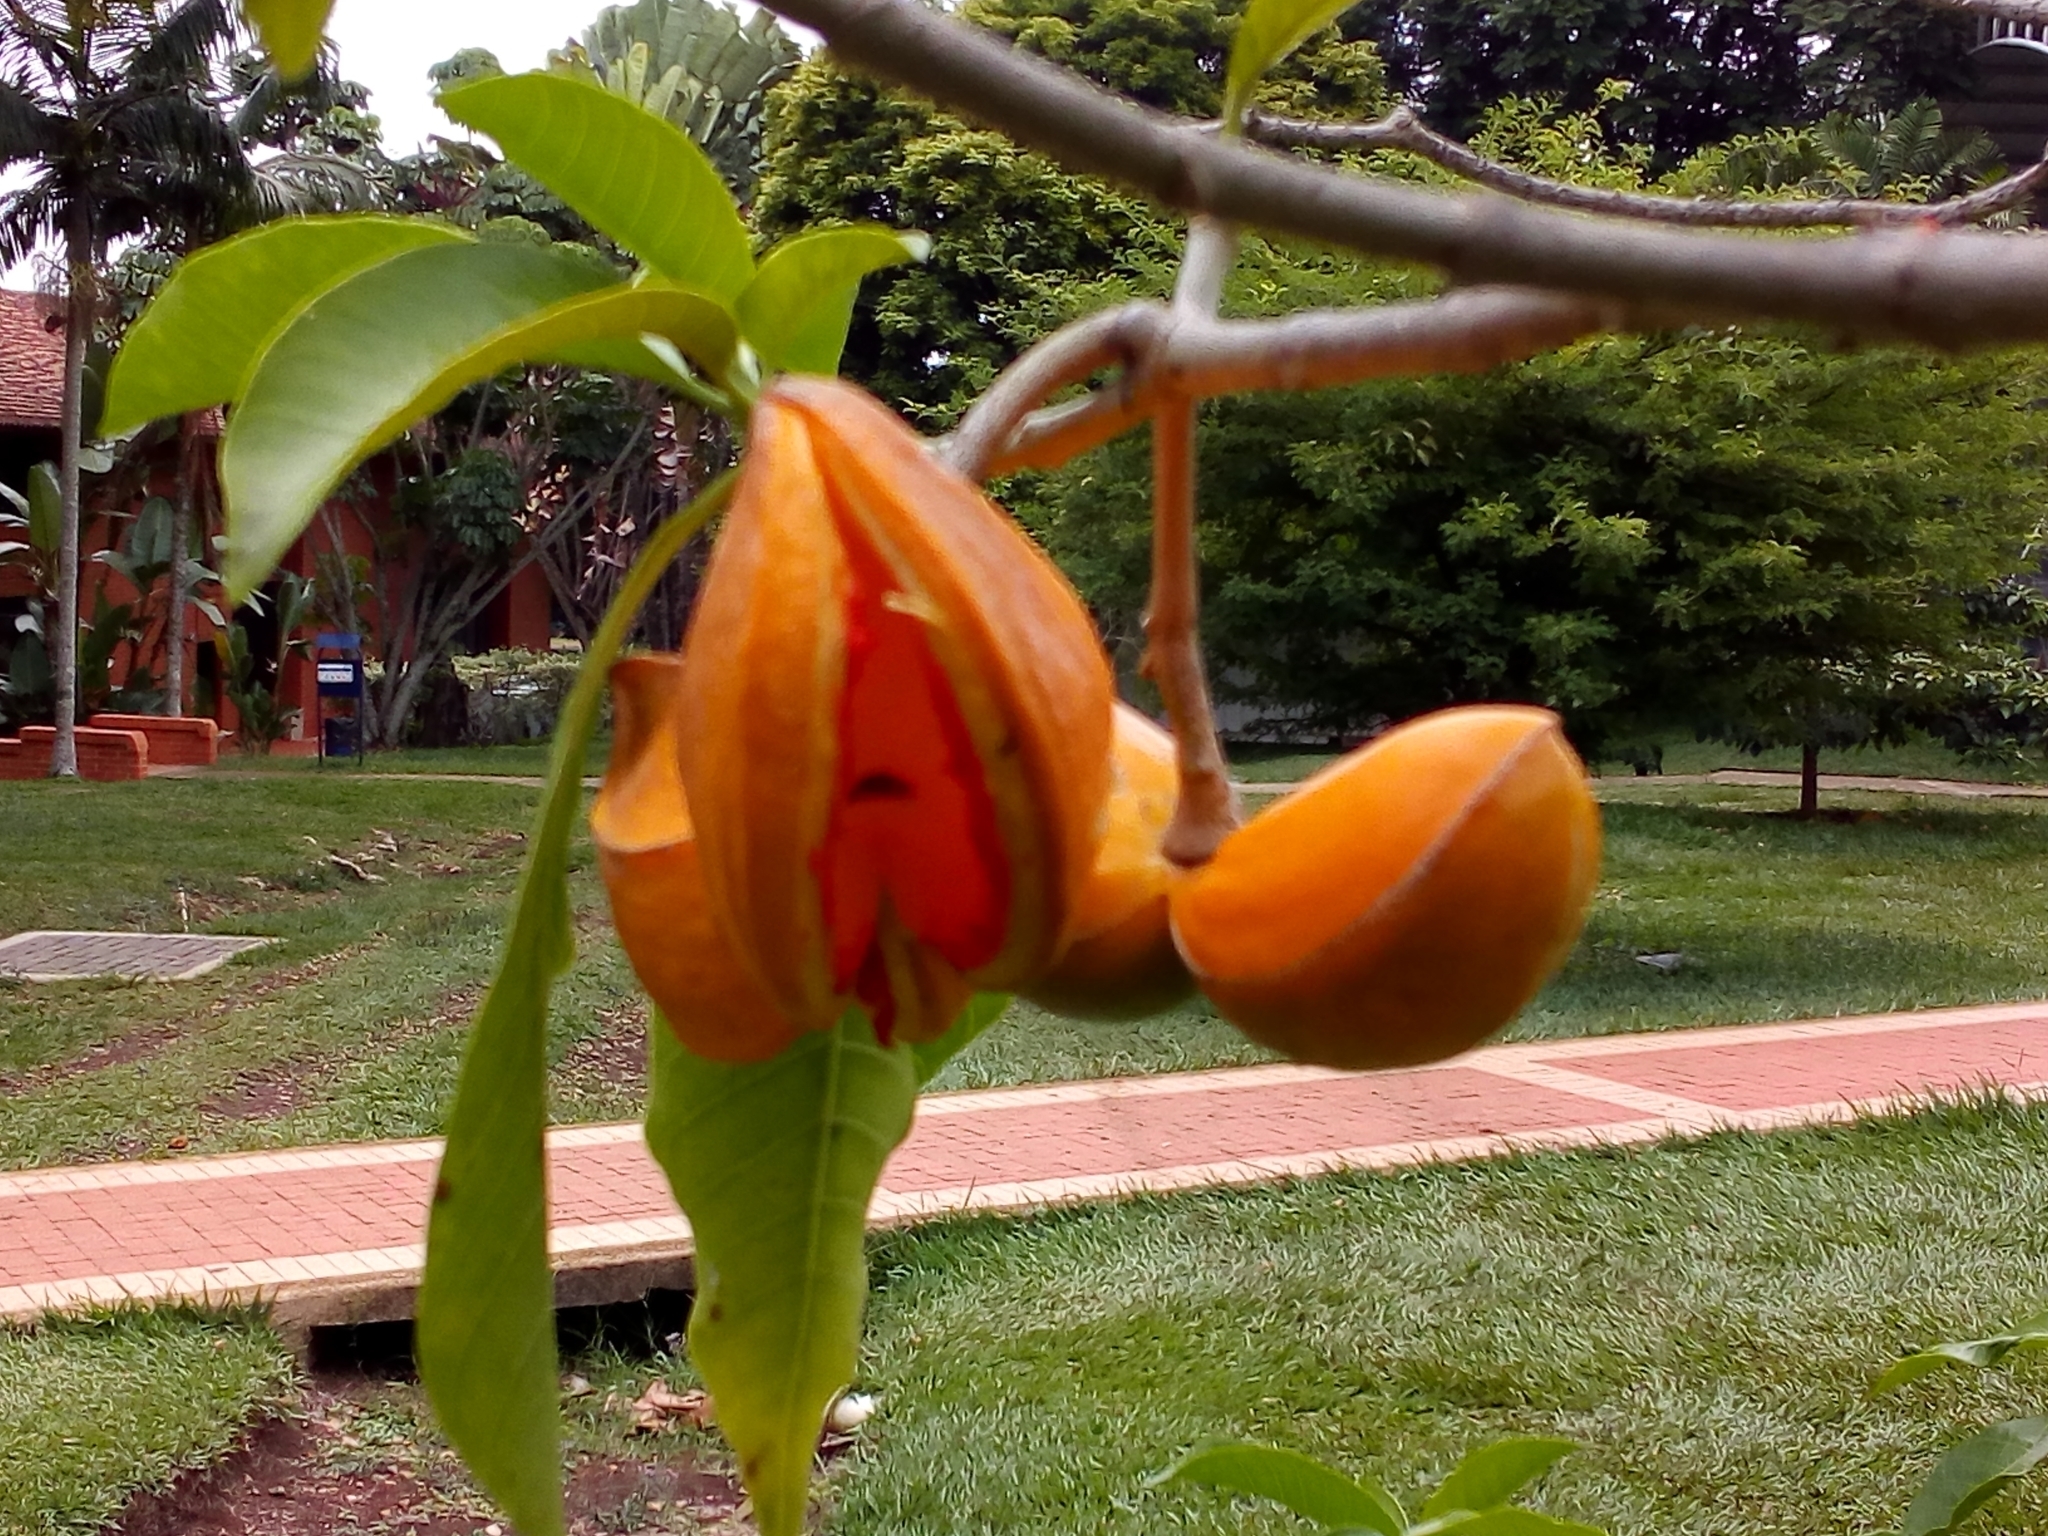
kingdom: Plantae
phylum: Tracheophyta
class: Magnoliopsida
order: Gentianales
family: Apocynaceae
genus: Tabernaemontana
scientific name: Tabernaemontana litoralis
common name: Milkwood
